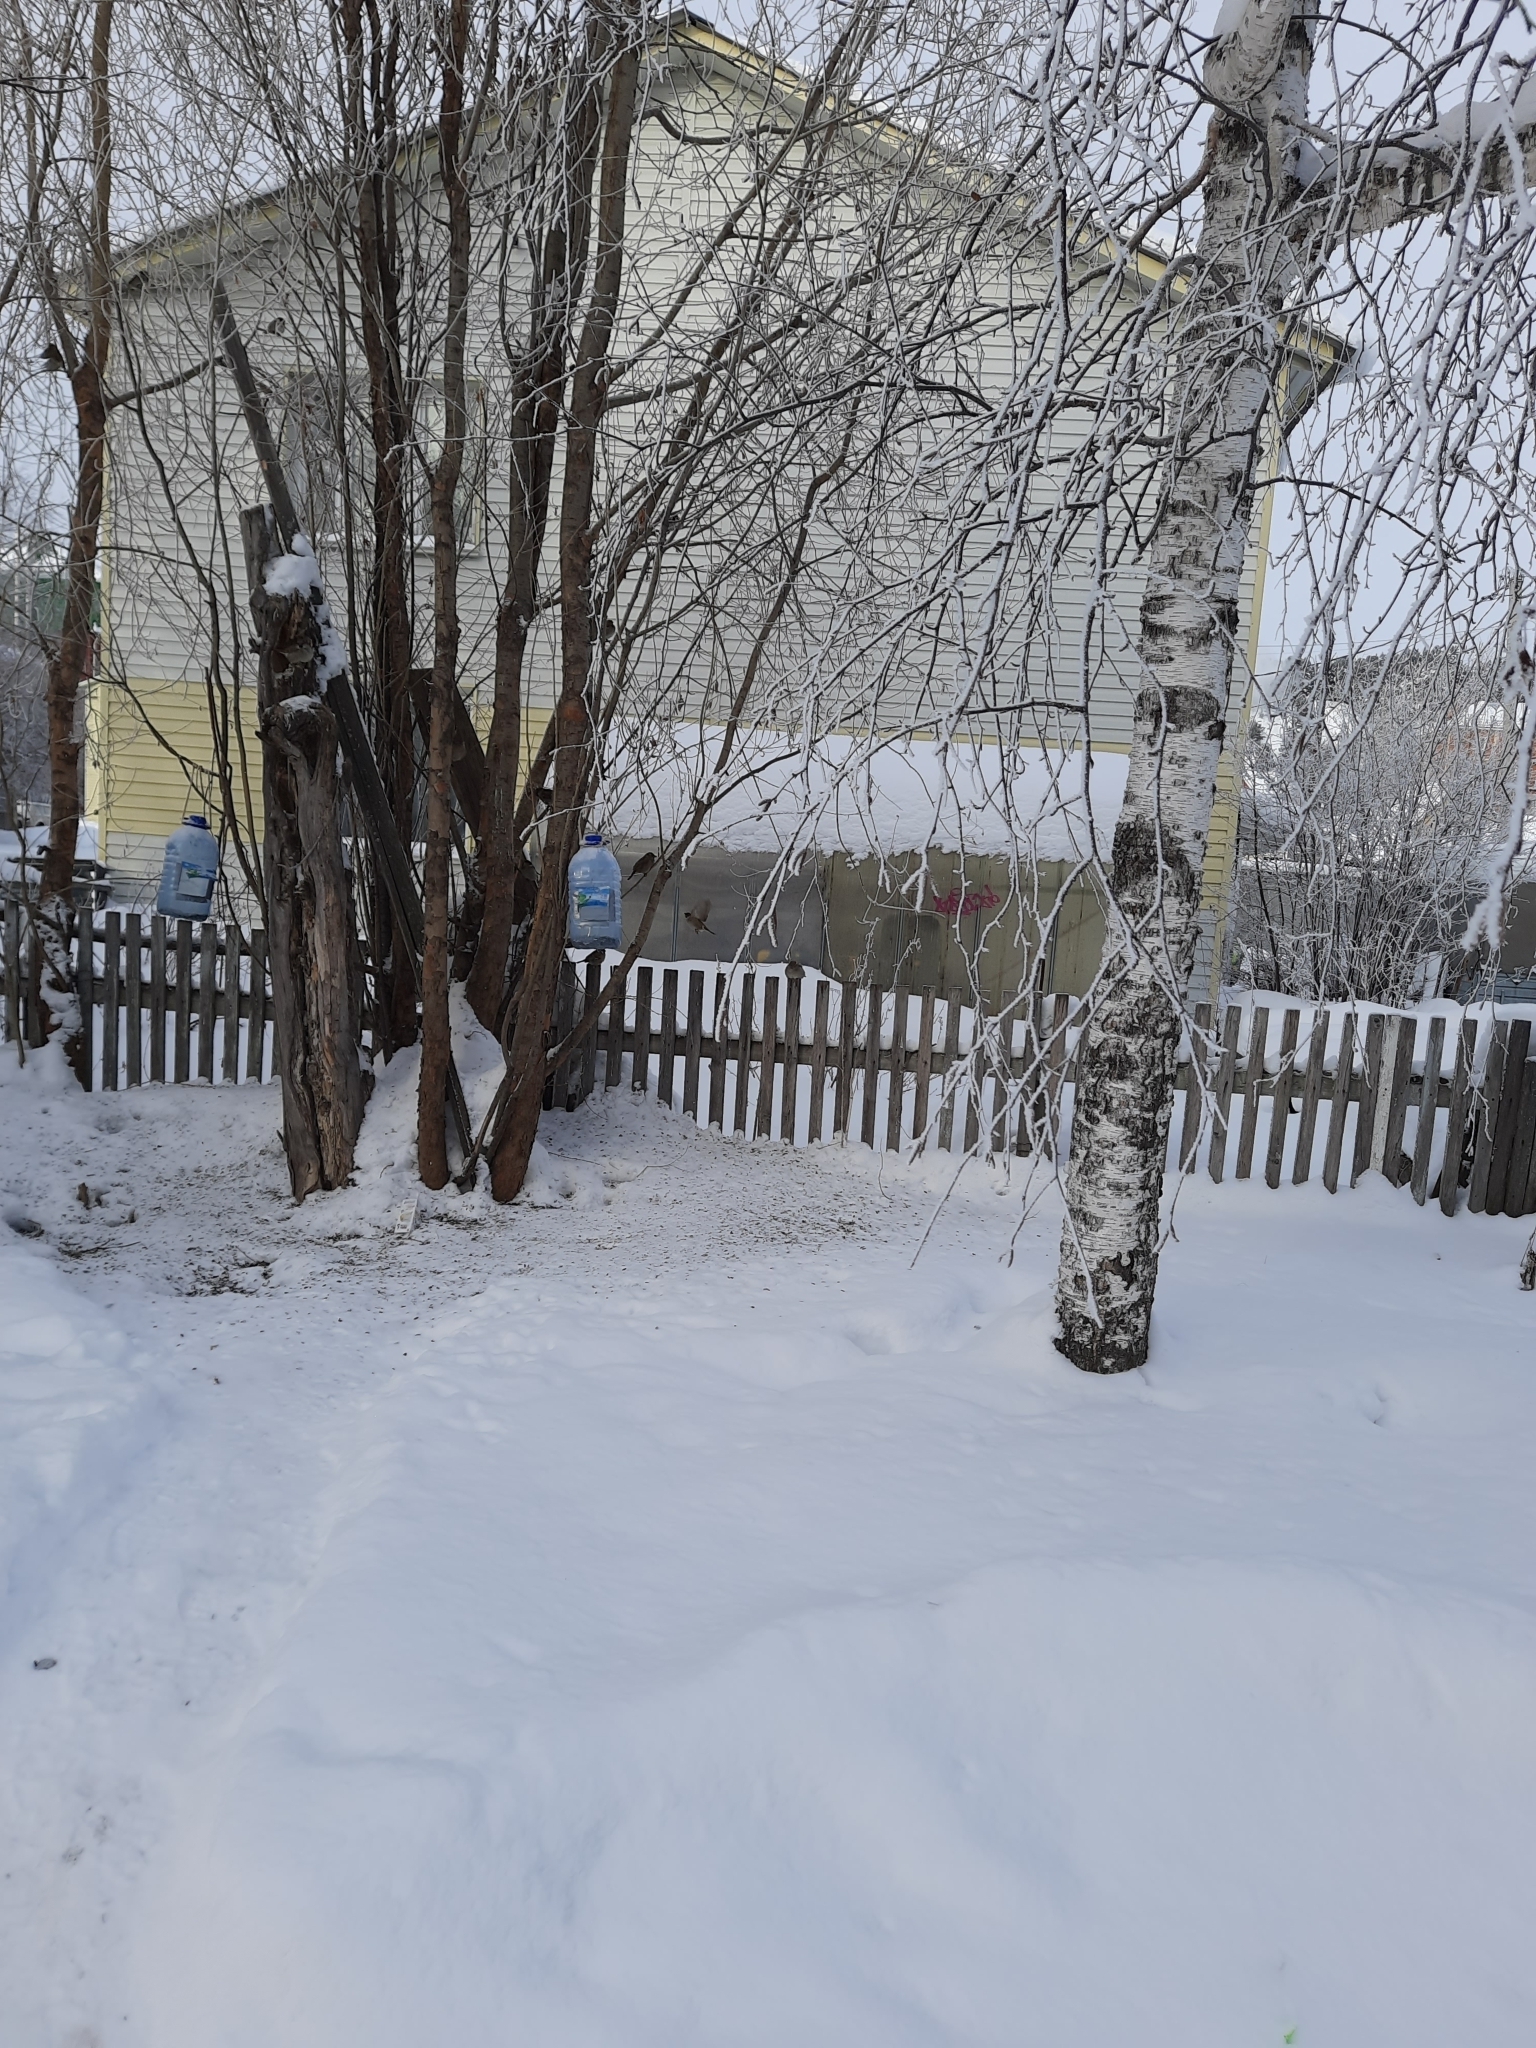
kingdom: Animalia
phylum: Chordata
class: Aves
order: Passeriformes
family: Passeridae
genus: Passer
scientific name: Passer montanus
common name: Eurasian tree sparrow
